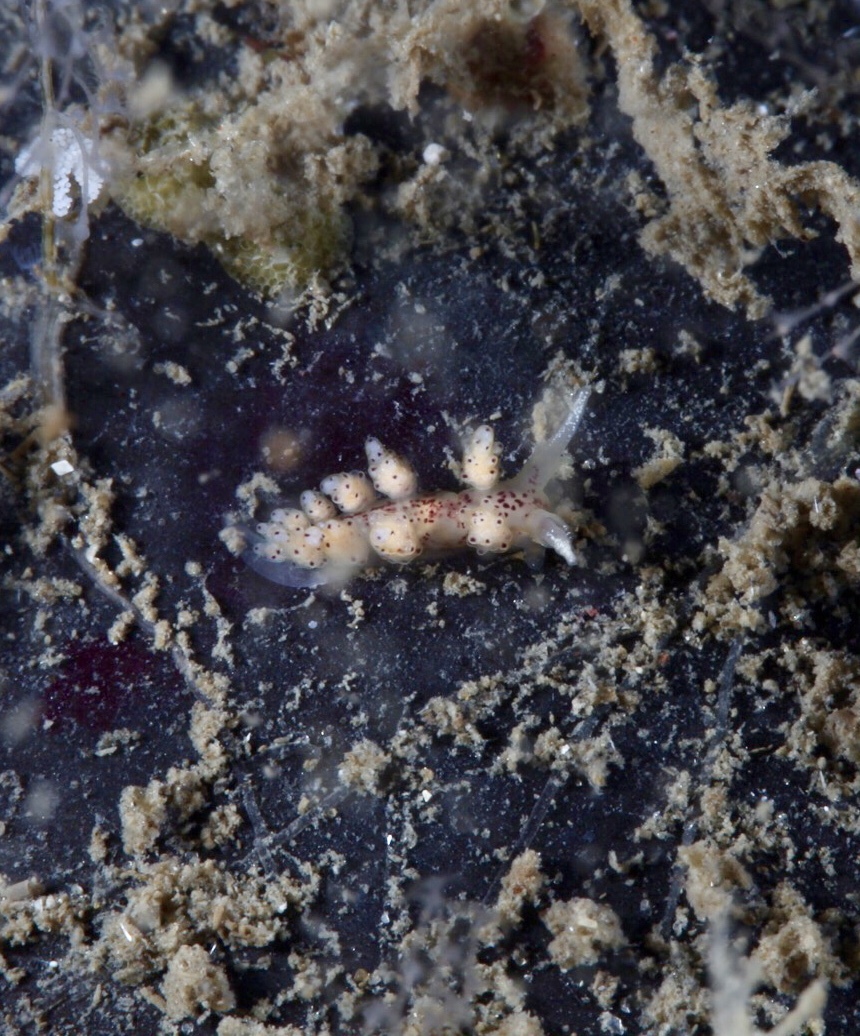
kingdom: Animalia
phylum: Mollusca
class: Gastropoda
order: Nudibranchia
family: Dotidae
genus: Doto
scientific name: Doto dunnei
